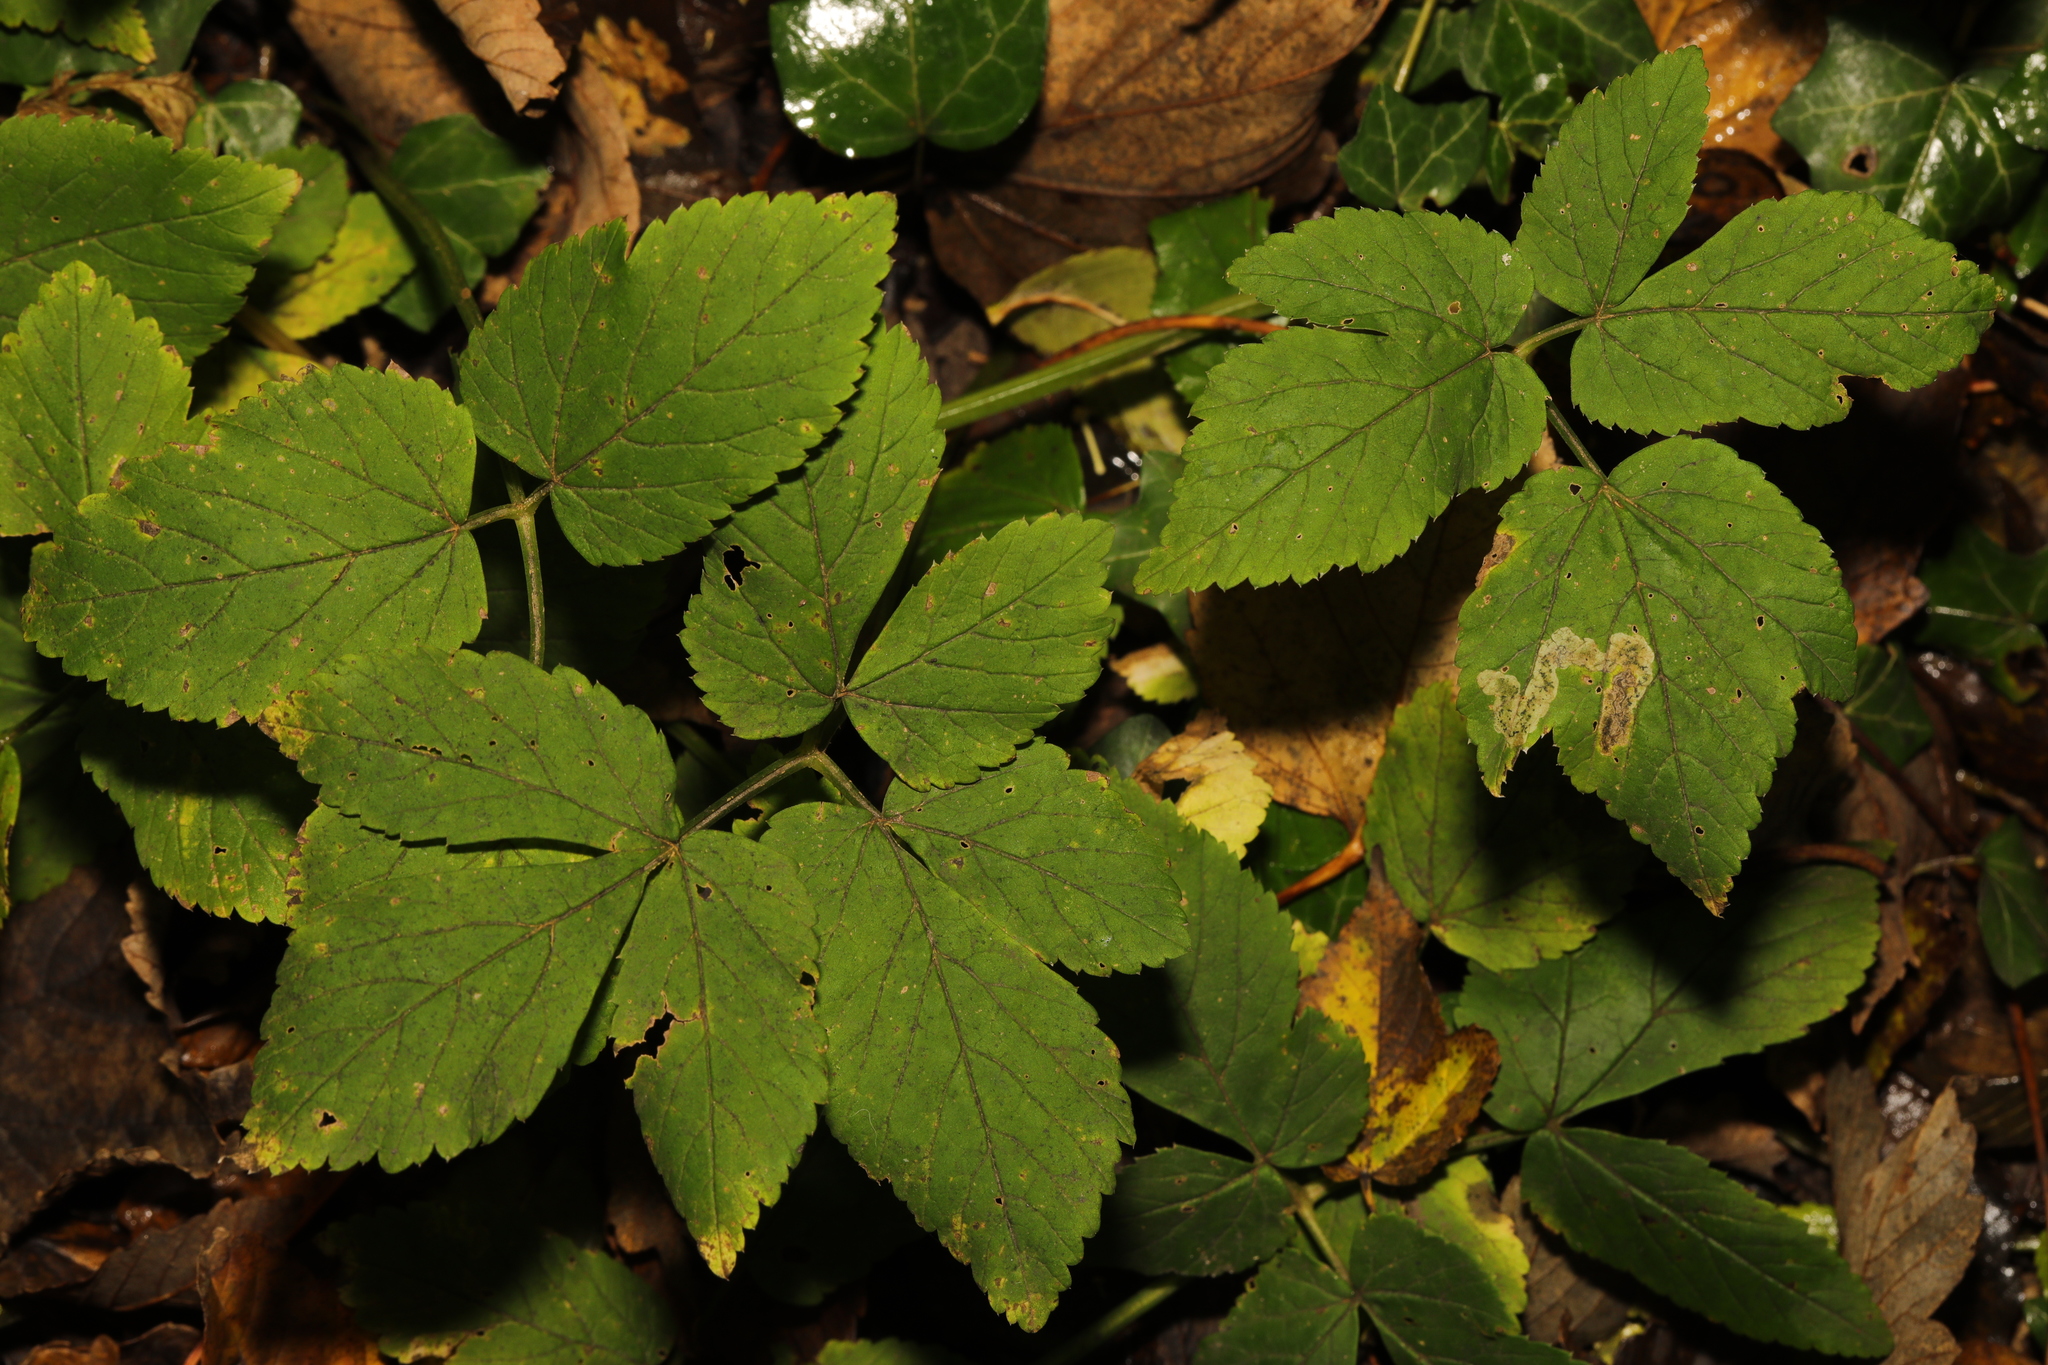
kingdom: Plantae
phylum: Tracheophyta
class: Magnoliopsida
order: Apiales
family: Apiaceae
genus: Aegopodium
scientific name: Aegopodium podagraria
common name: Ground-elder
